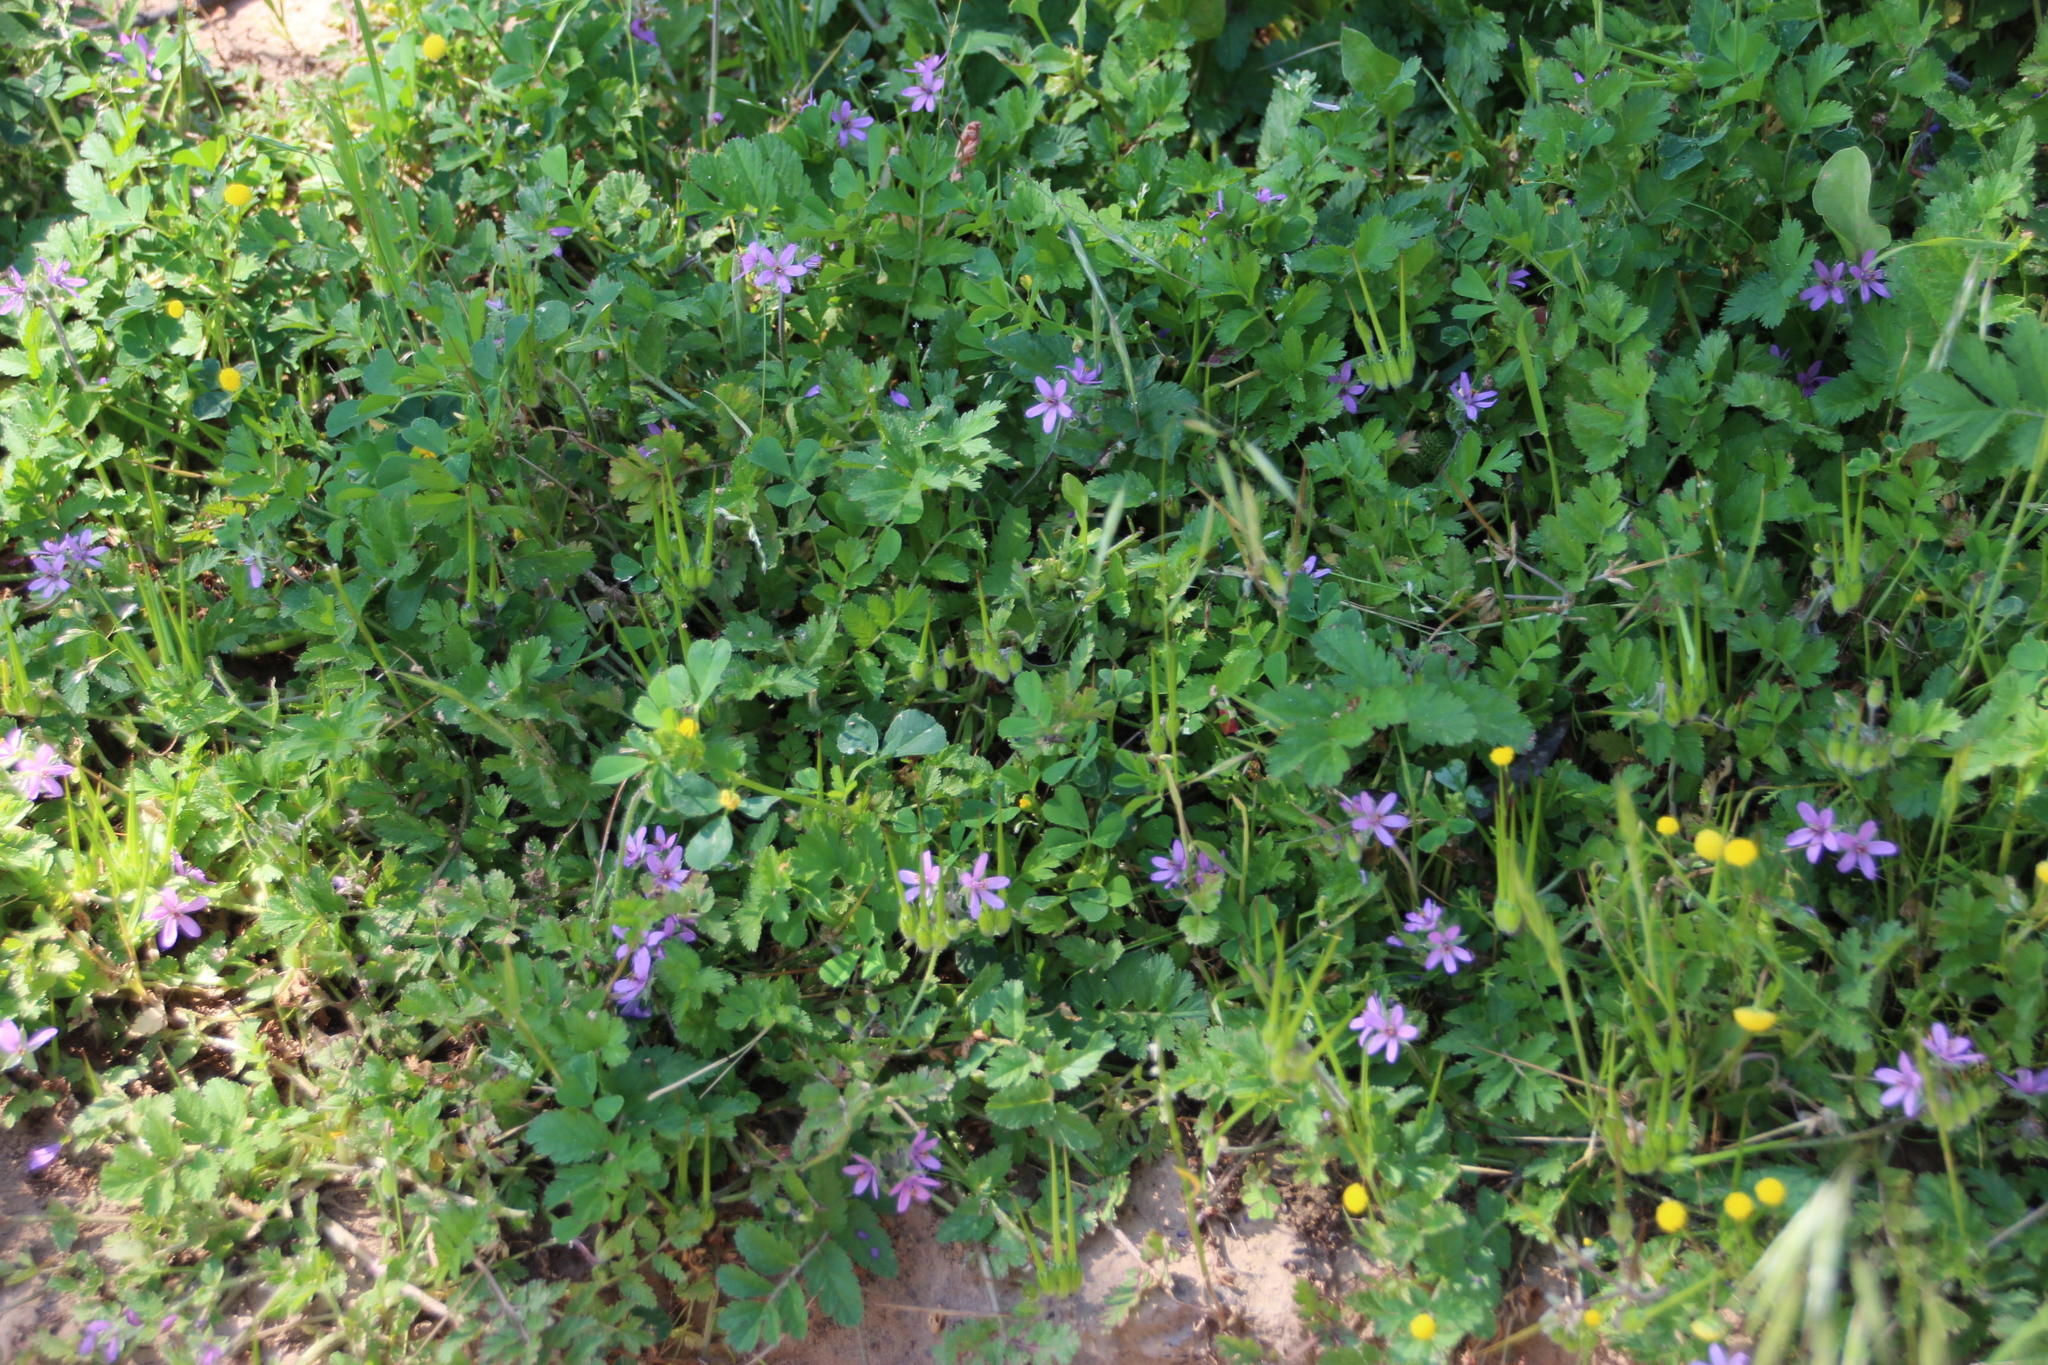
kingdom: Plantae
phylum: Tracheophyta
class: Magnoliopsida
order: Geraniales
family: Geraniaceae
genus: Erodium
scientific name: Erodium moschatum
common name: Musk stork's-bill
